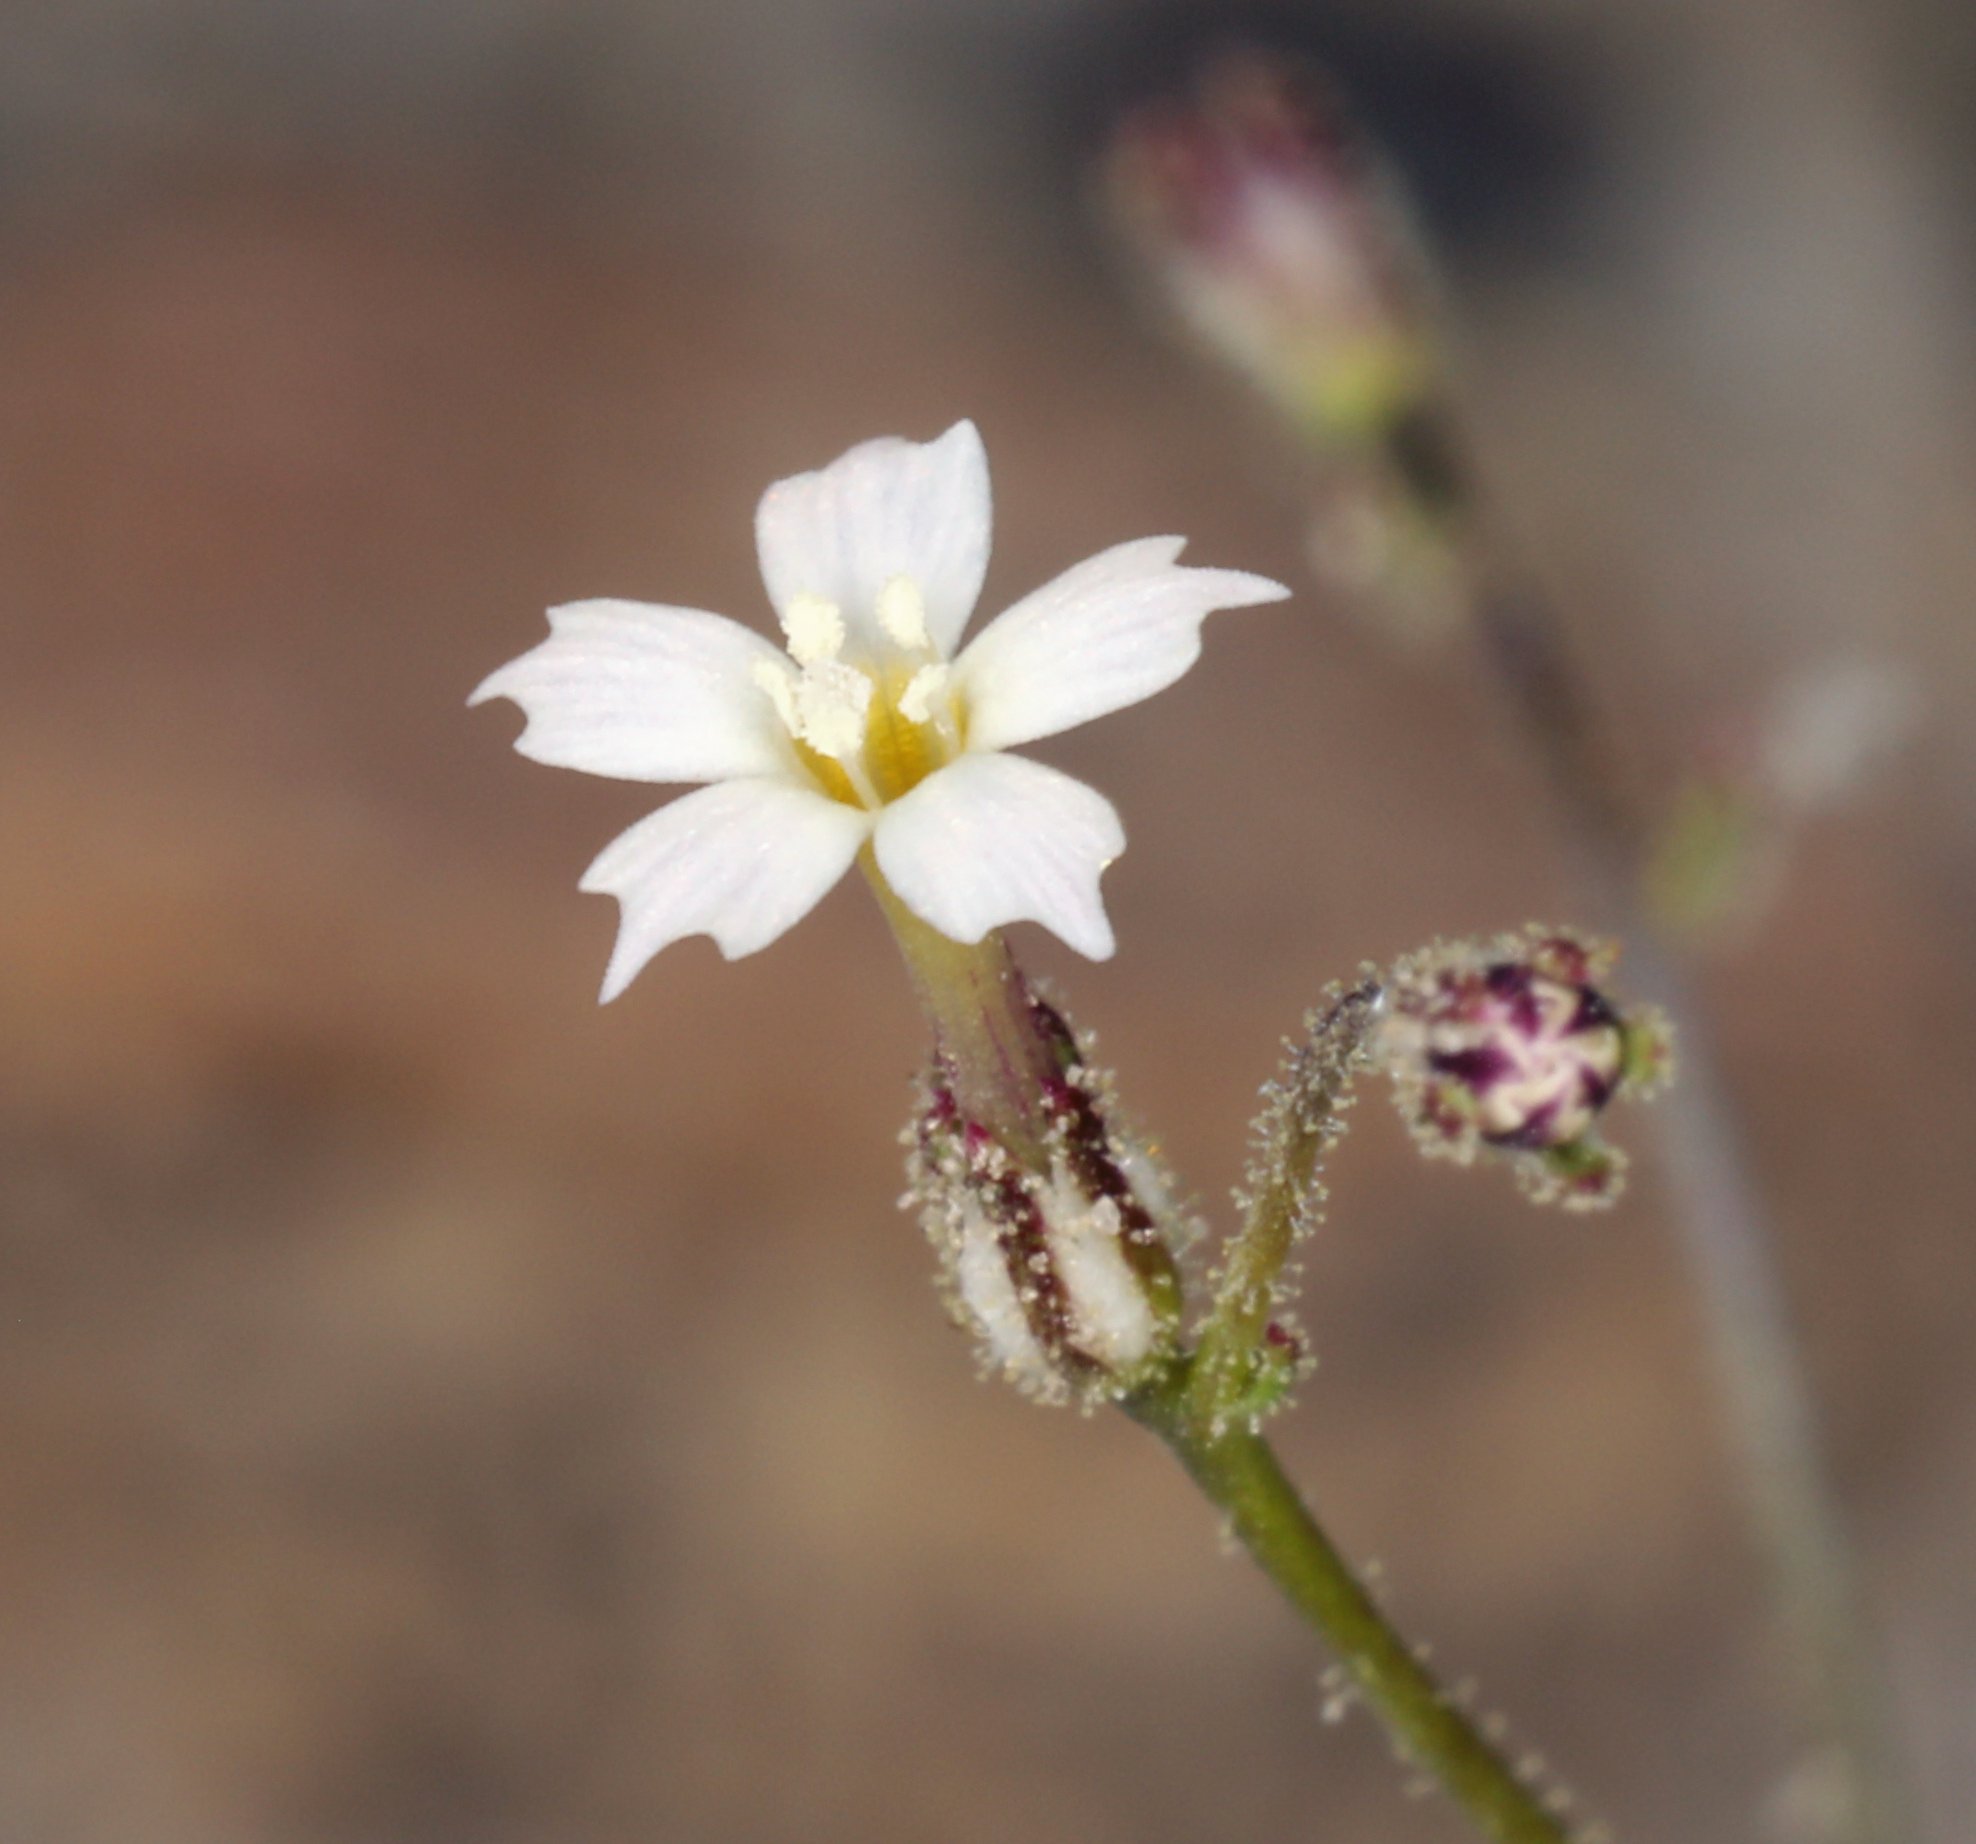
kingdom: Plantae
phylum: Tracheophyta
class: Magnoliopsida
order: Ericales
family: Polemoniaceae
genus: Aliciella
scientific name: Aliciella leptomeria
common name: Sand gilia
